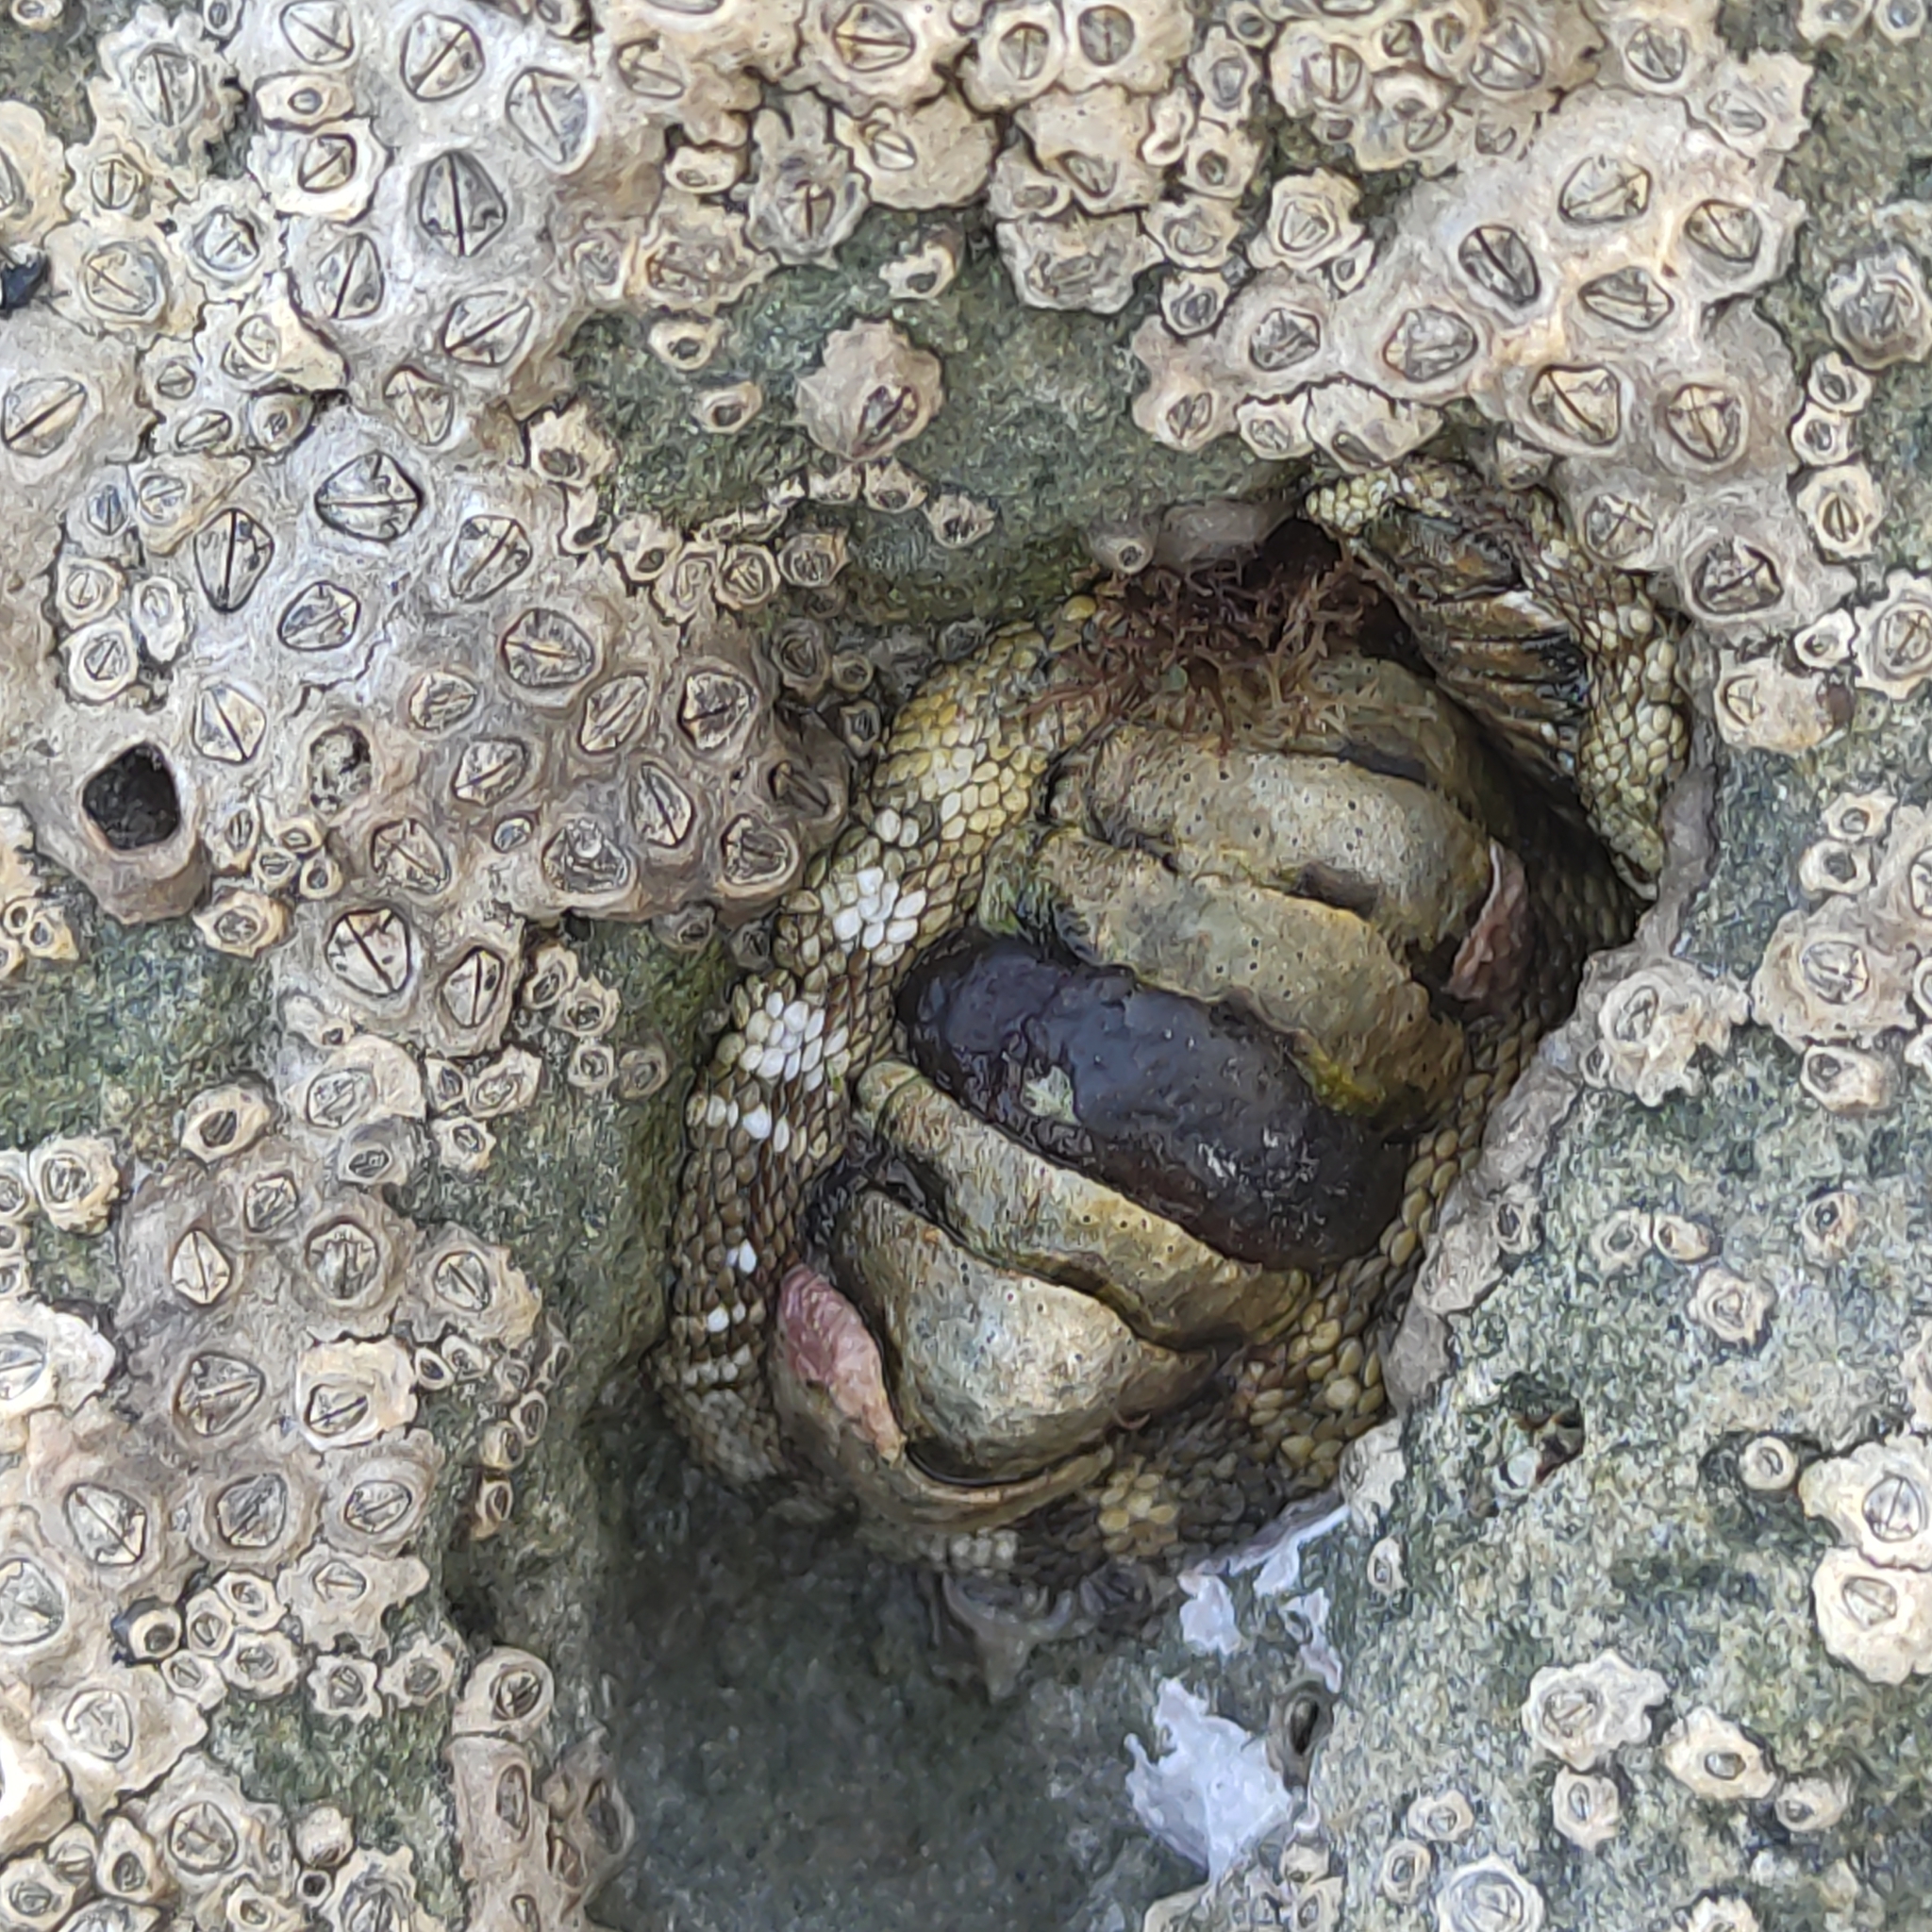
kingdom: Animalia
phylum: Mollusca
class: Polyplacophora
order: Chitonida
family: Chitonidae
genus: Sypharochiton
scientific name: Sypharochiton pelliserpentis
